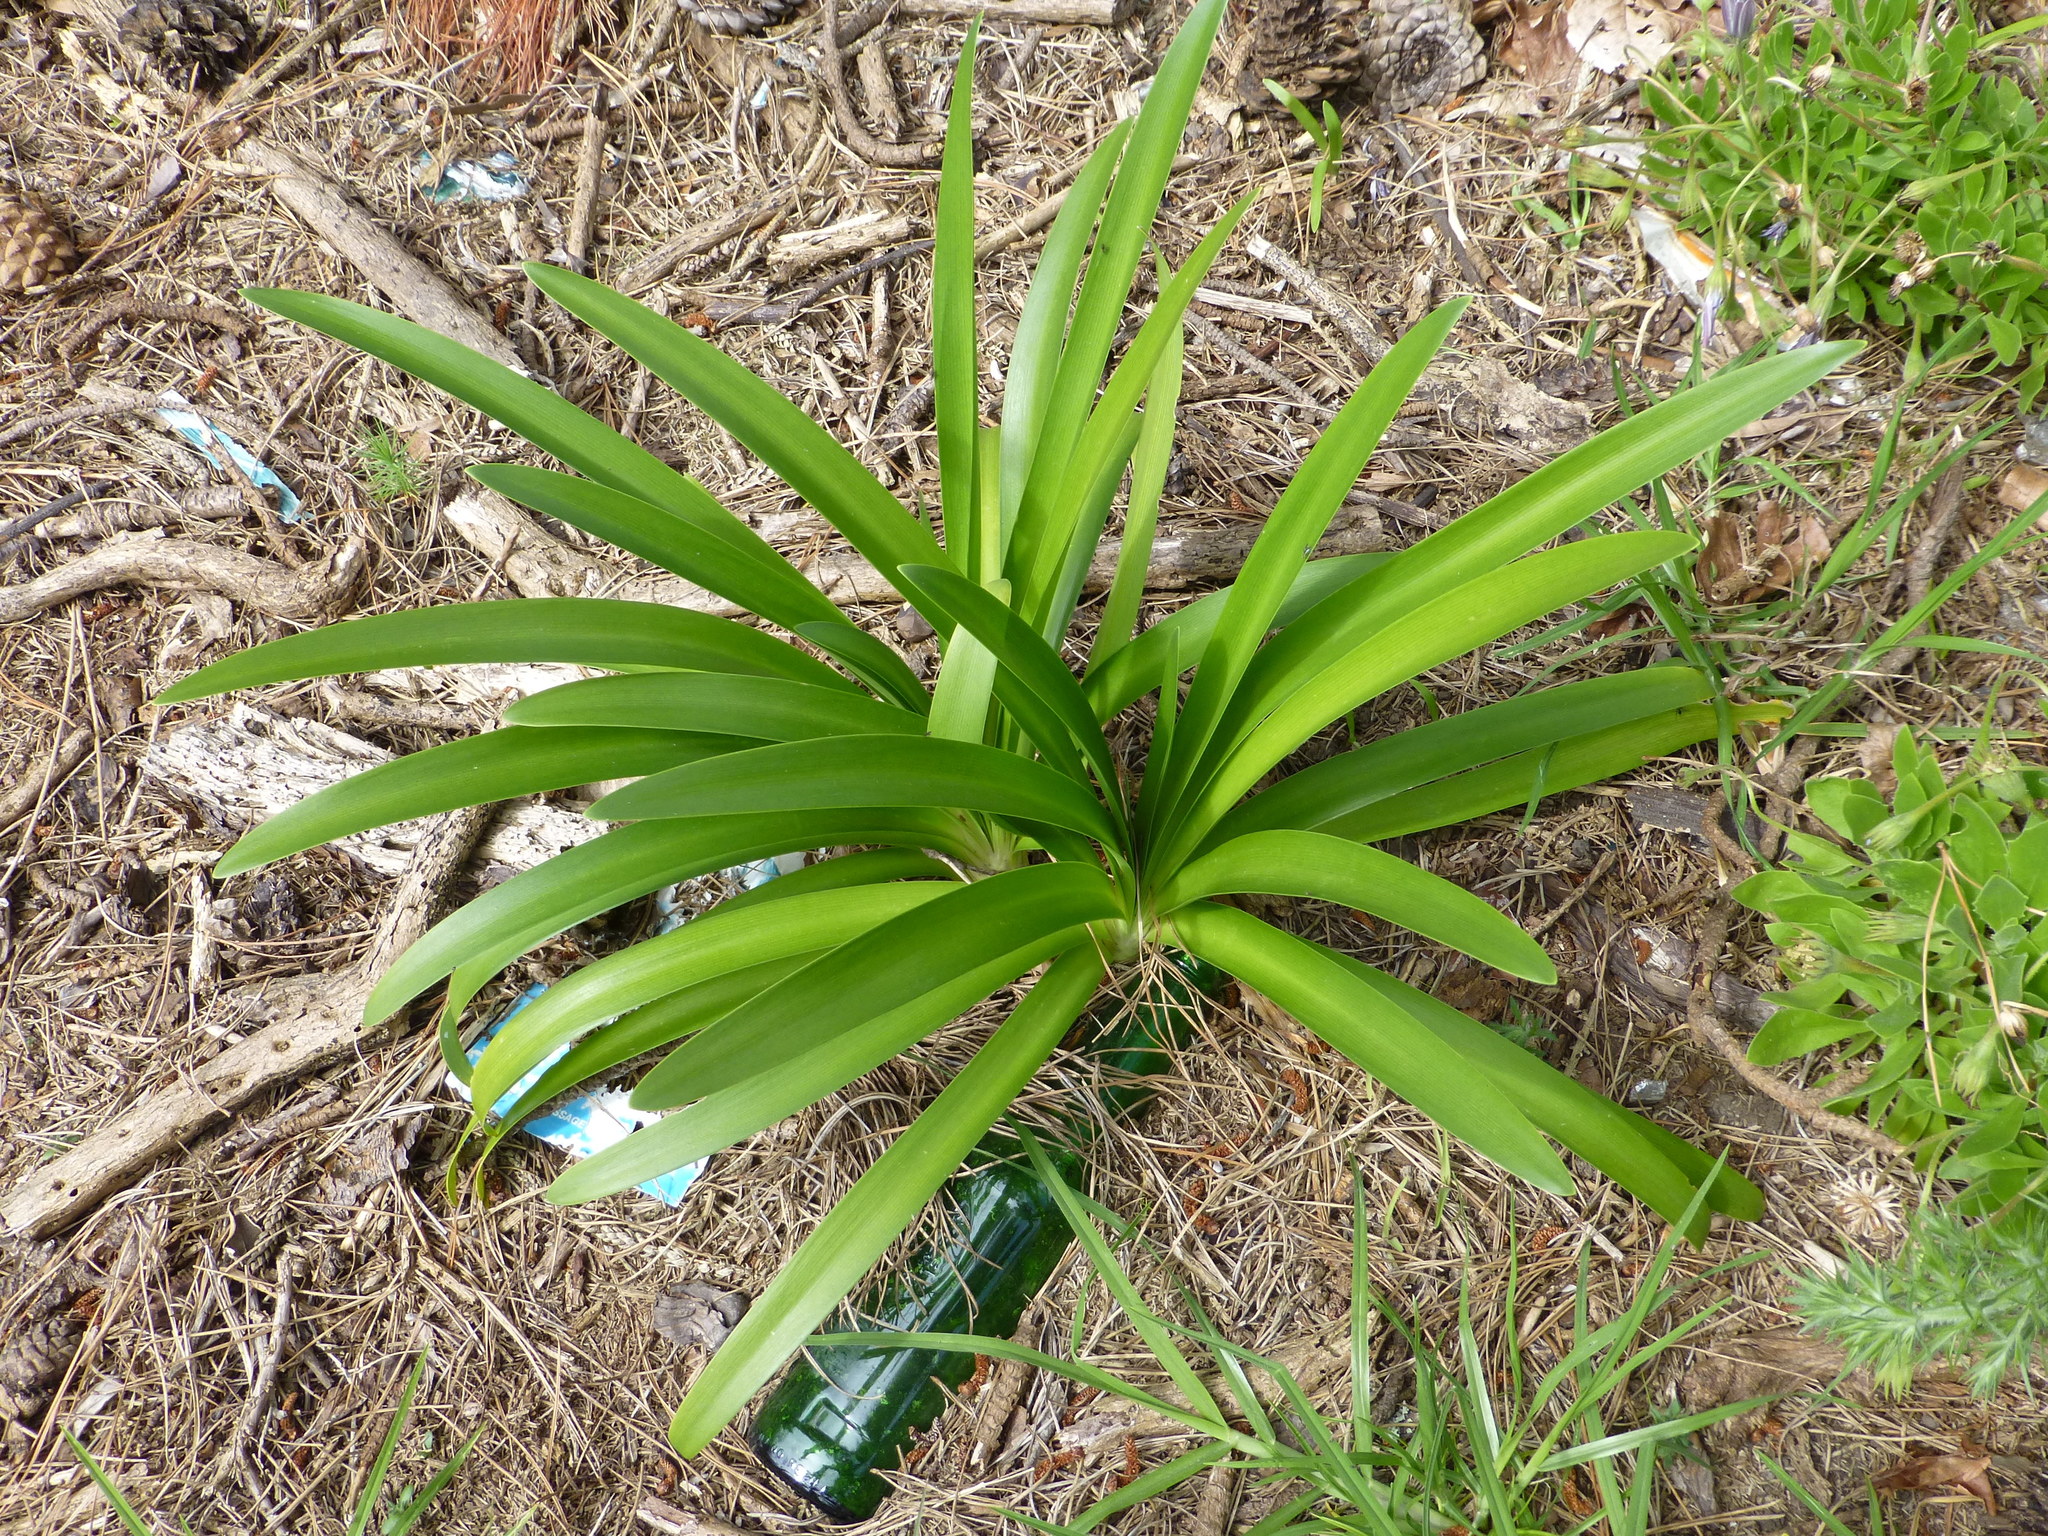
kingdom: Plantae
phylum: Tracheophyta
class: Liliopsida
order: Asparagales
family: Amaryllidaceae
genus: Agapanthus
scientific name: Agapanthus praecox
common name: African-lily
